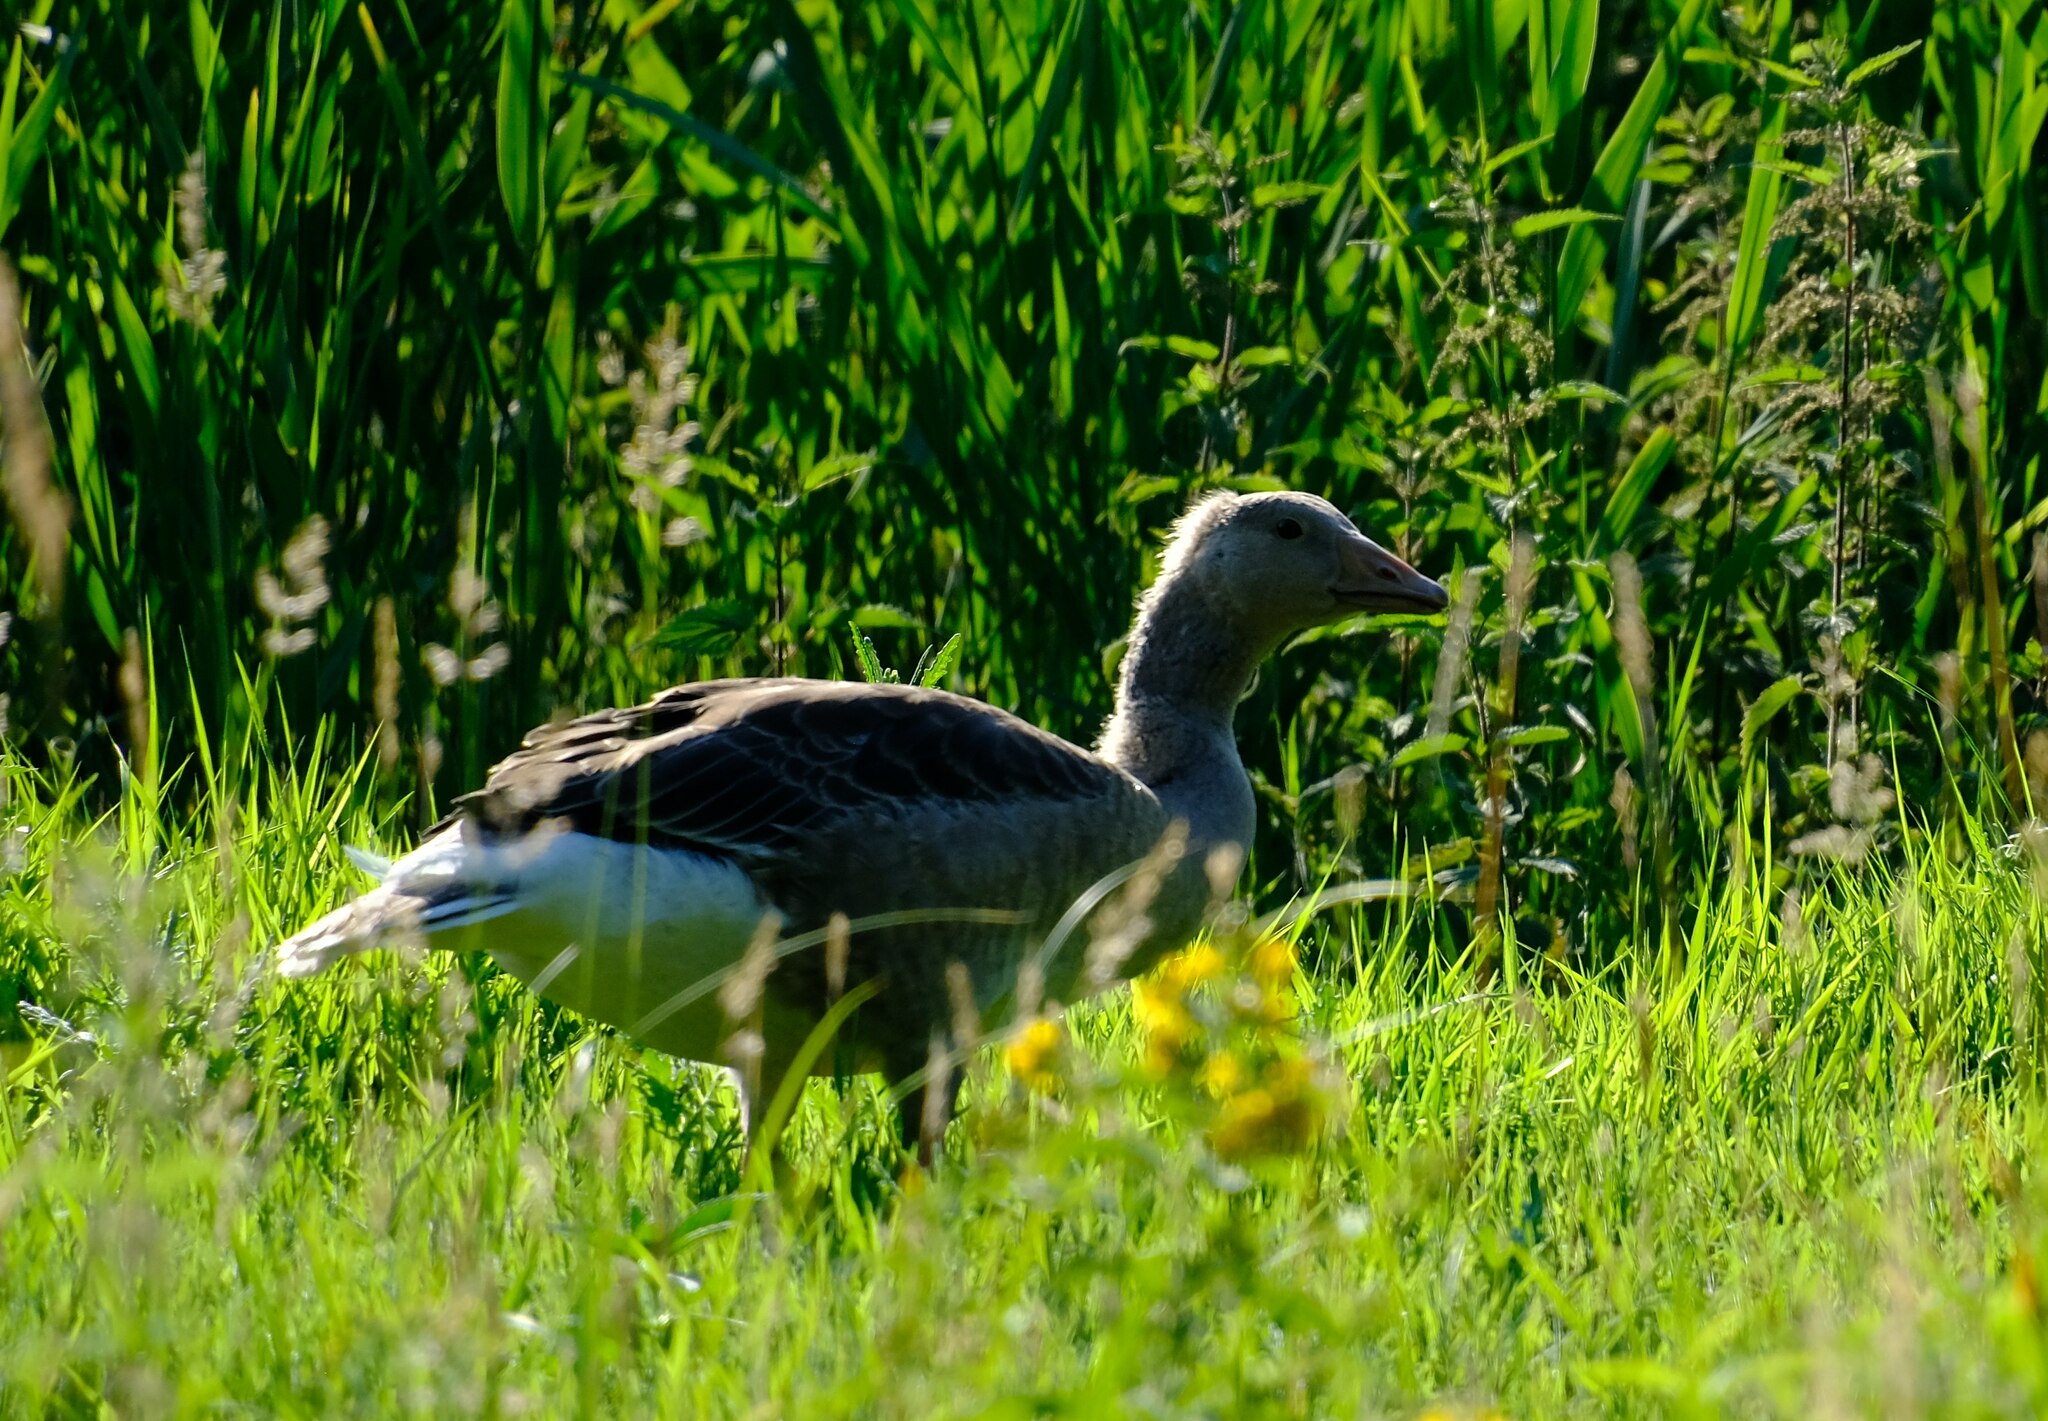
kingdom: Animalia
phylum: Chordata
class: Aves
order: Anseriformes
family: Anatidae
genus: Anser
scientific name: Anser anser
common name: Greylag goose
